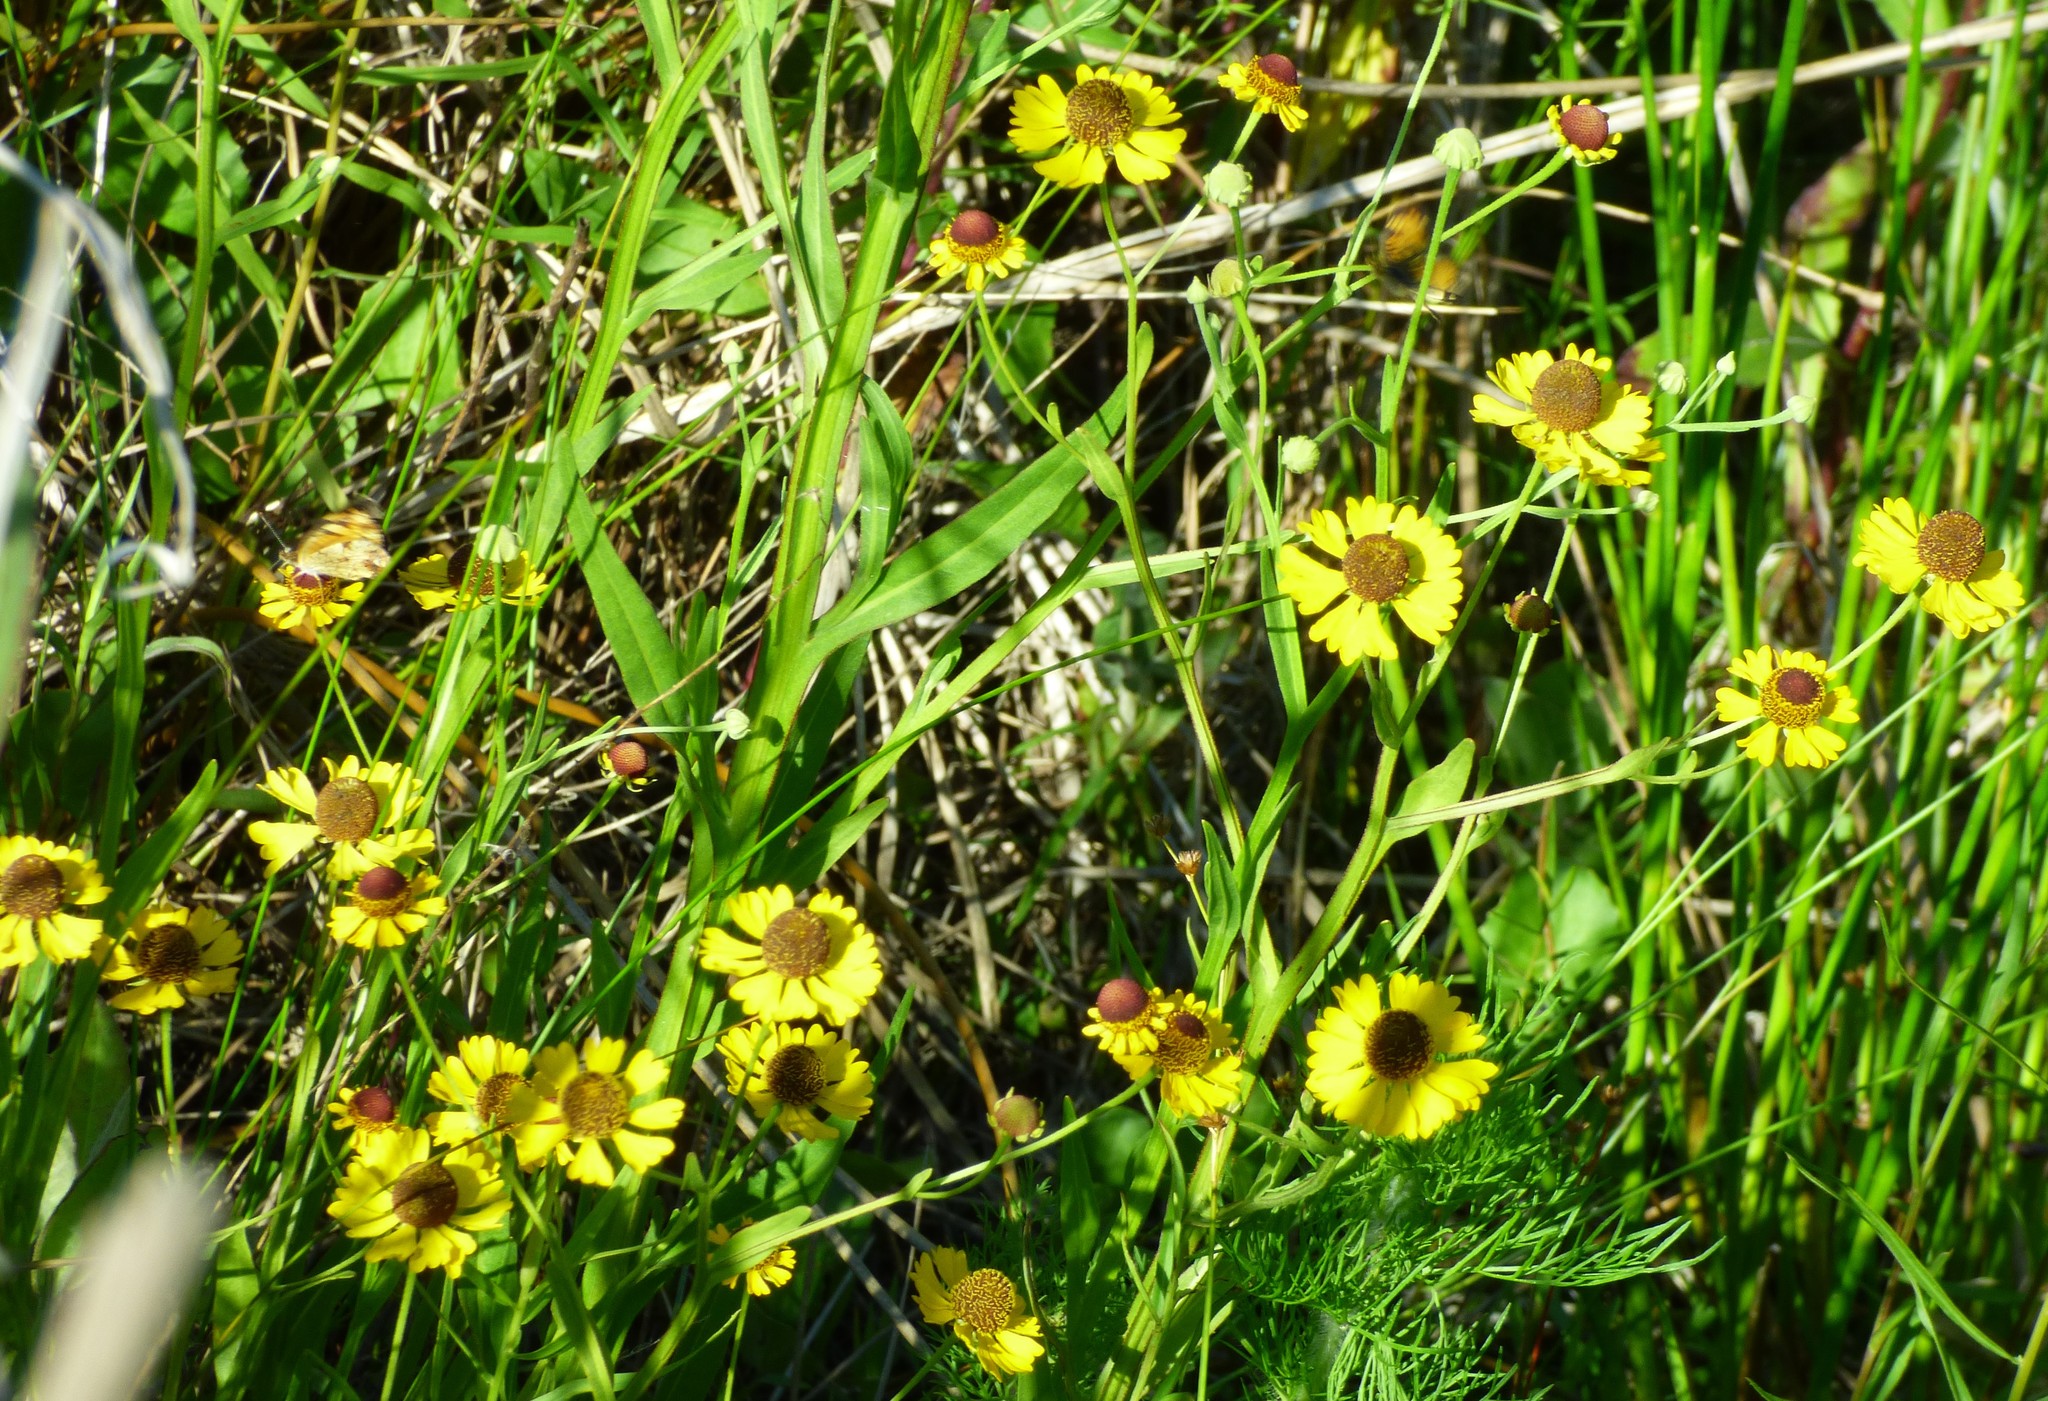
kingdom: Plantae
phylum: Tracheophyta
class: Magnoliopsida
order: Asterales
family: Asteraceae
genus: Helenium
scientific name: Helenium flexuosum
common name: Naked-flowered sneezeweed
